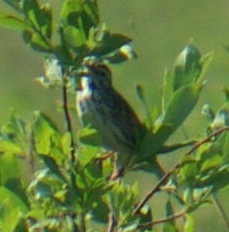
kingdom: Animalia
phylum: Chordata
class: Aves
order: Passeriformes
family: Passerellidae
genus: Passerculus
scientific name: Passerculus sandwichensis
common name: Savannah sparrow
